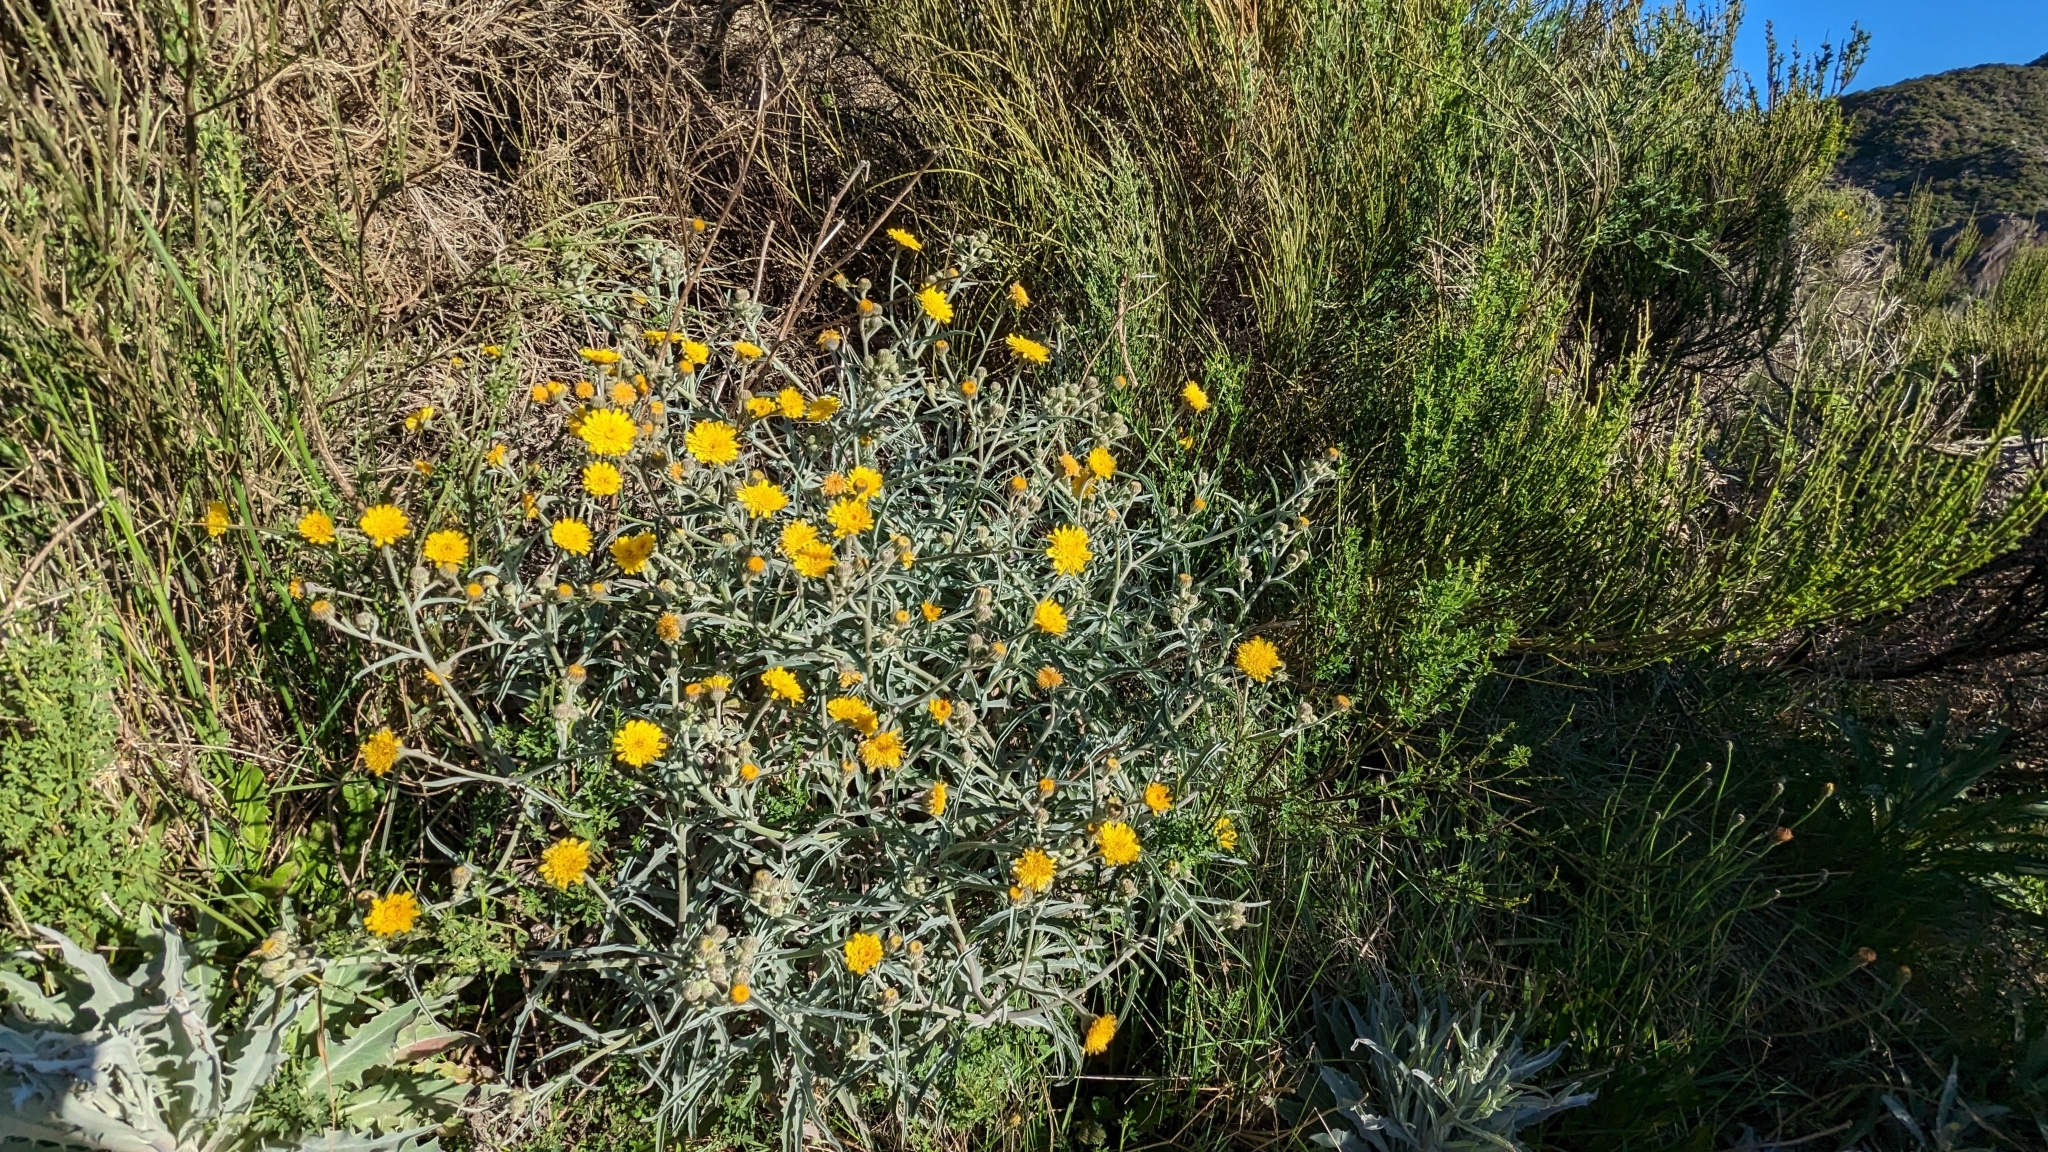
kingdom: Plantae
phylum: Tracheophyta
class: Magnoliopsida
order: Asterales
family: Asteraceae
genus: Andryala
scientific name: Andryala glandulosa
